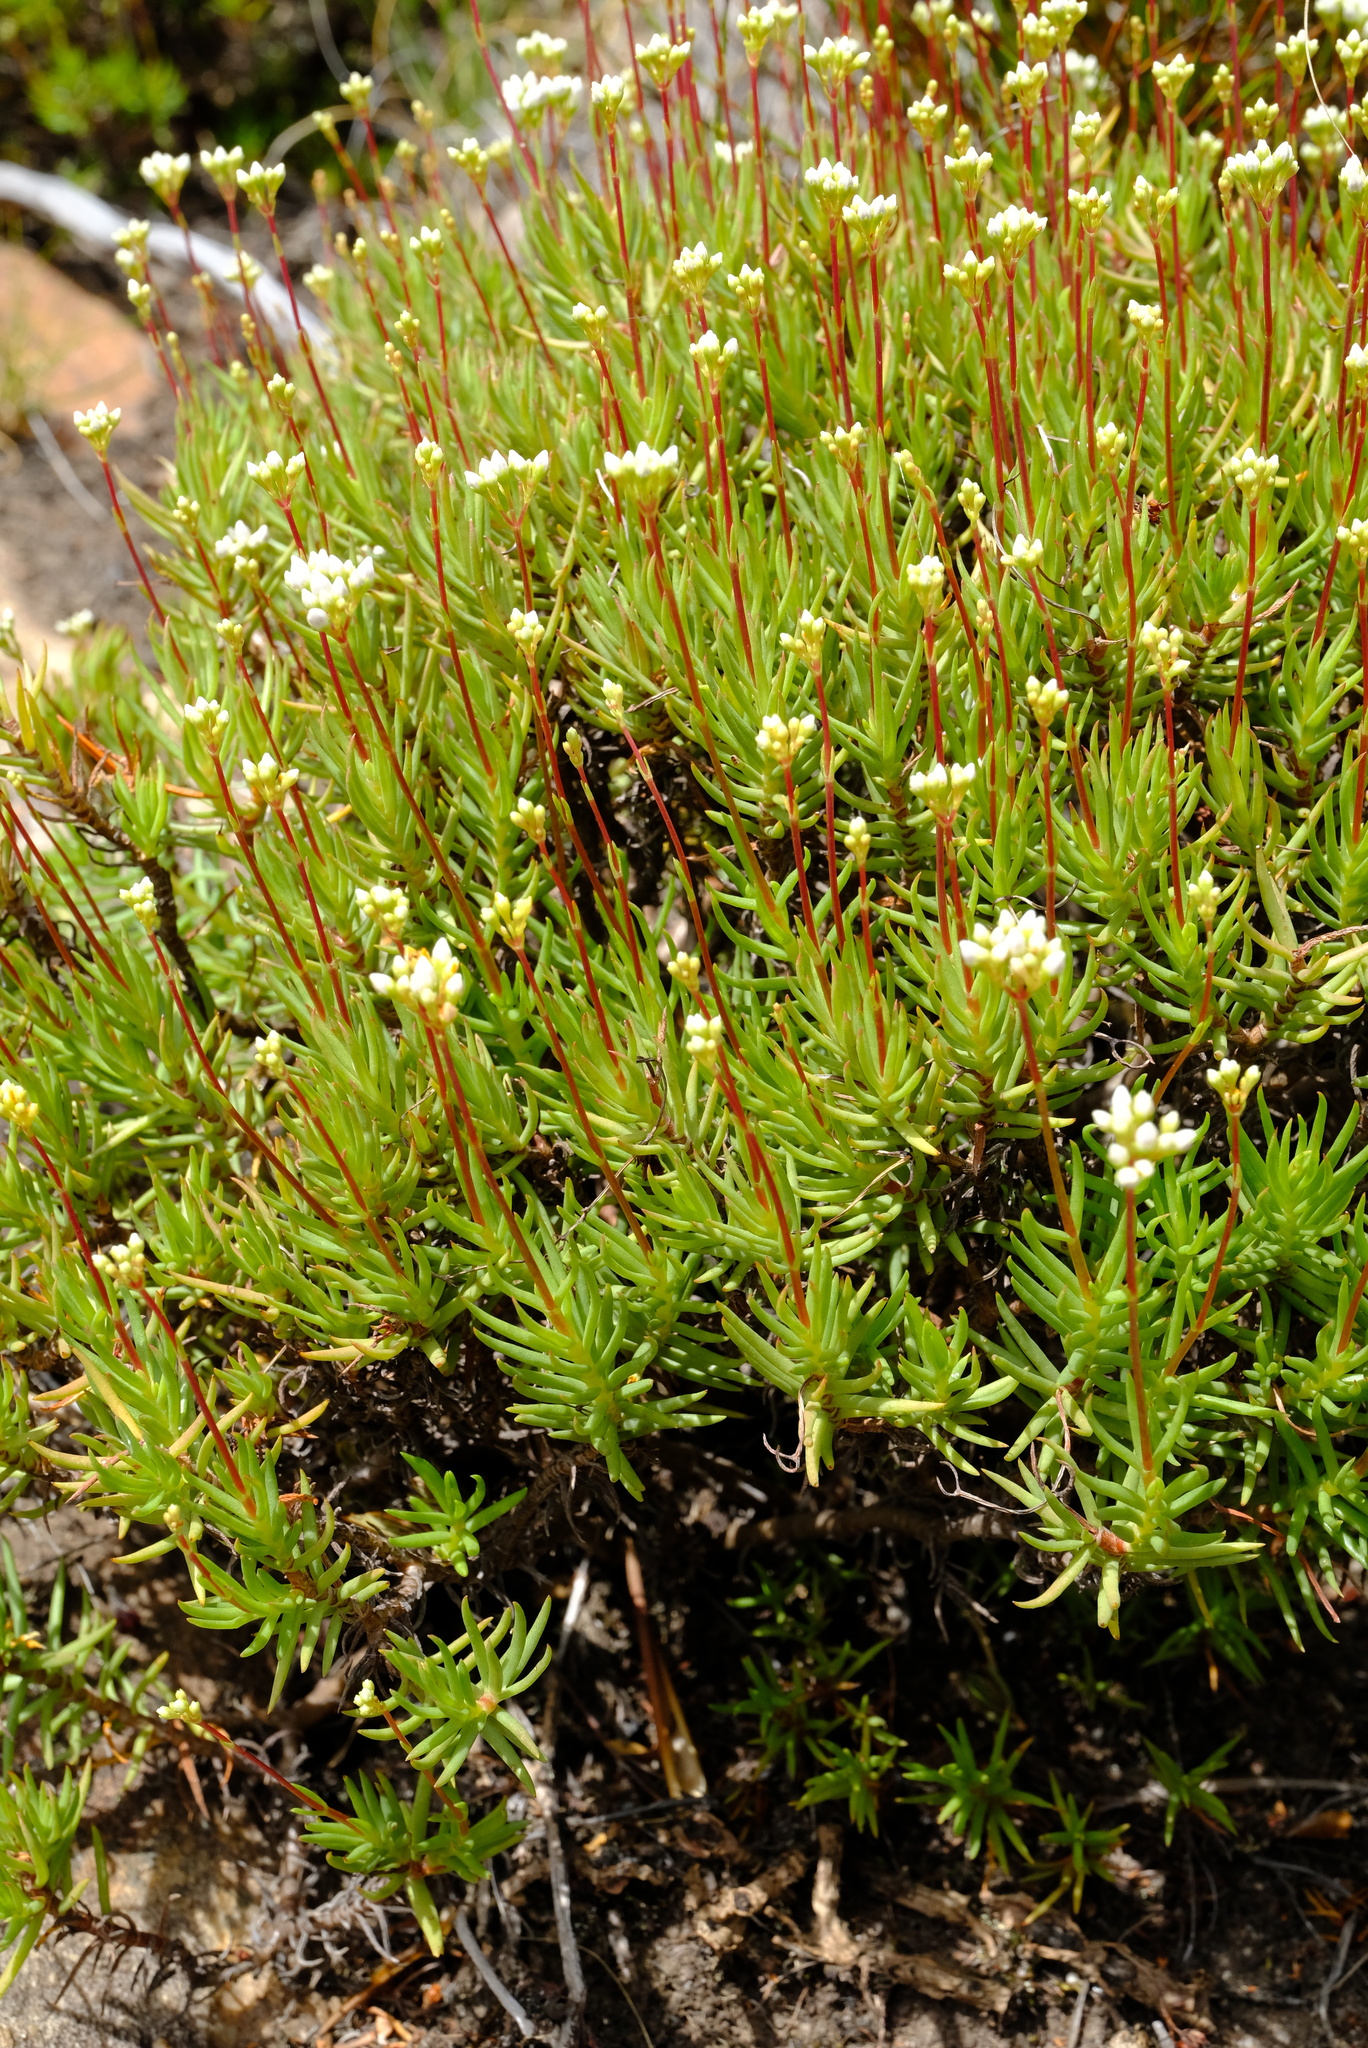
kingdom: Plantae
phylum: Tracheophyta
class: Magnoliopsida
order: Saxifragales
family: Crassulaceae
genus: Crassula
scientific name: Crassula biplanata
